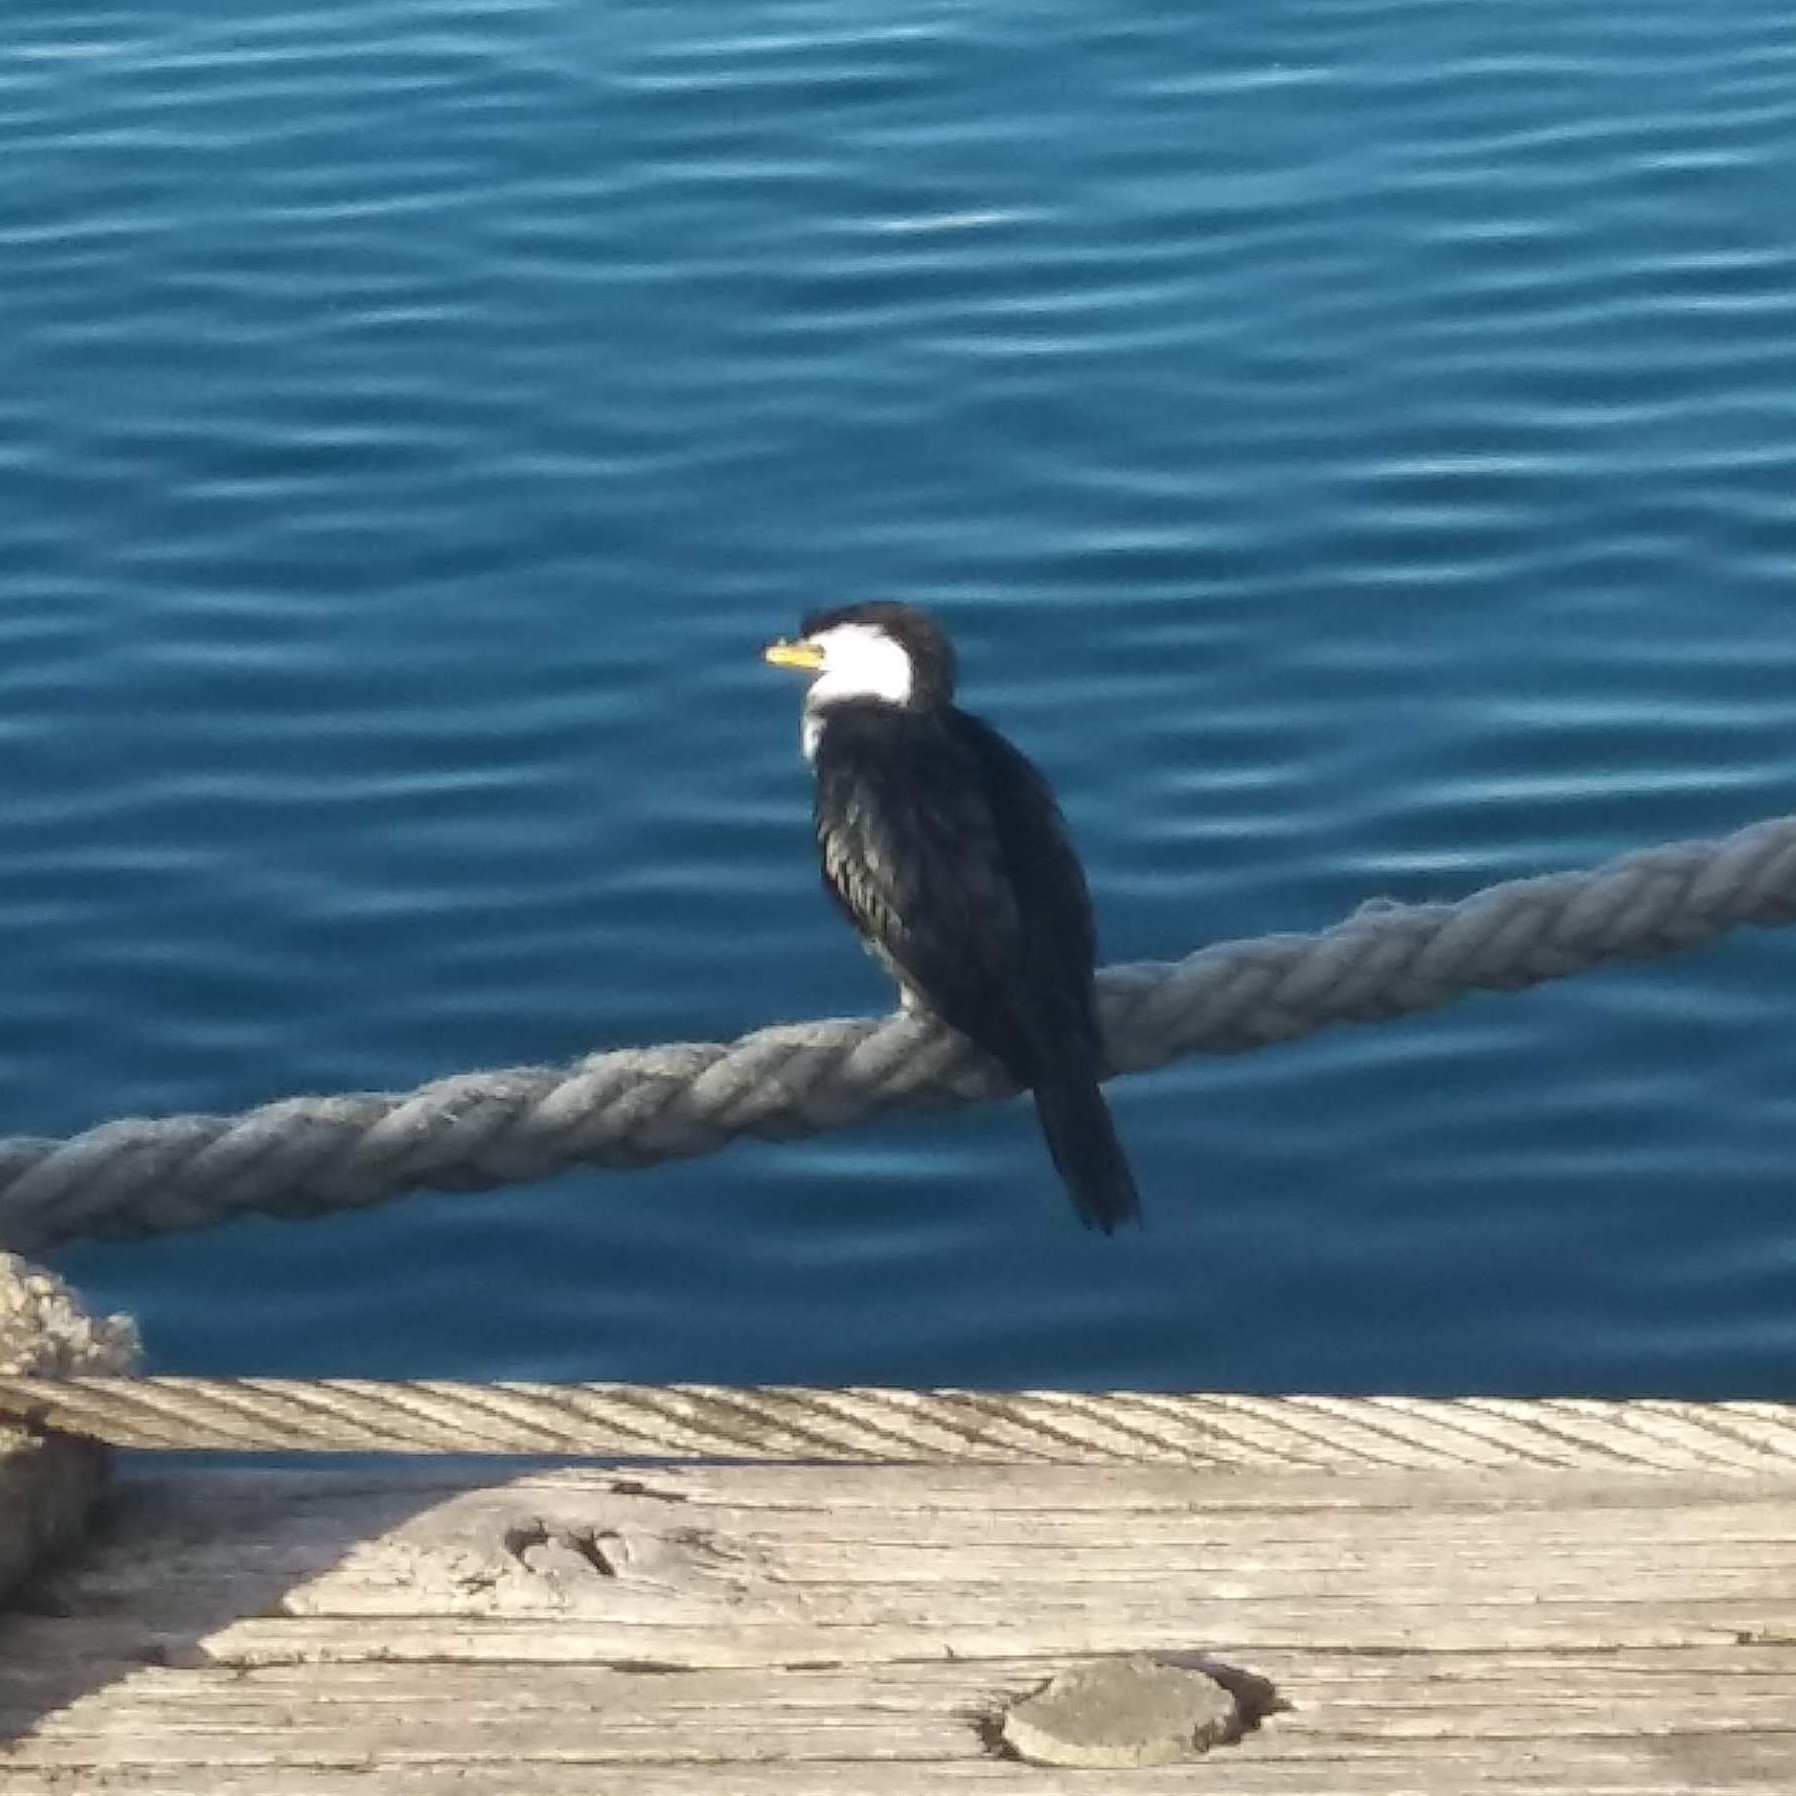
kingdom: Animalia
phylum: Chordata
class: Aves
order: Suliformes
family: Phalacrocoracidae
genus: Microcarbo
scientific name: Microcarbo melanoleucos
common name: Little pied cormorant
